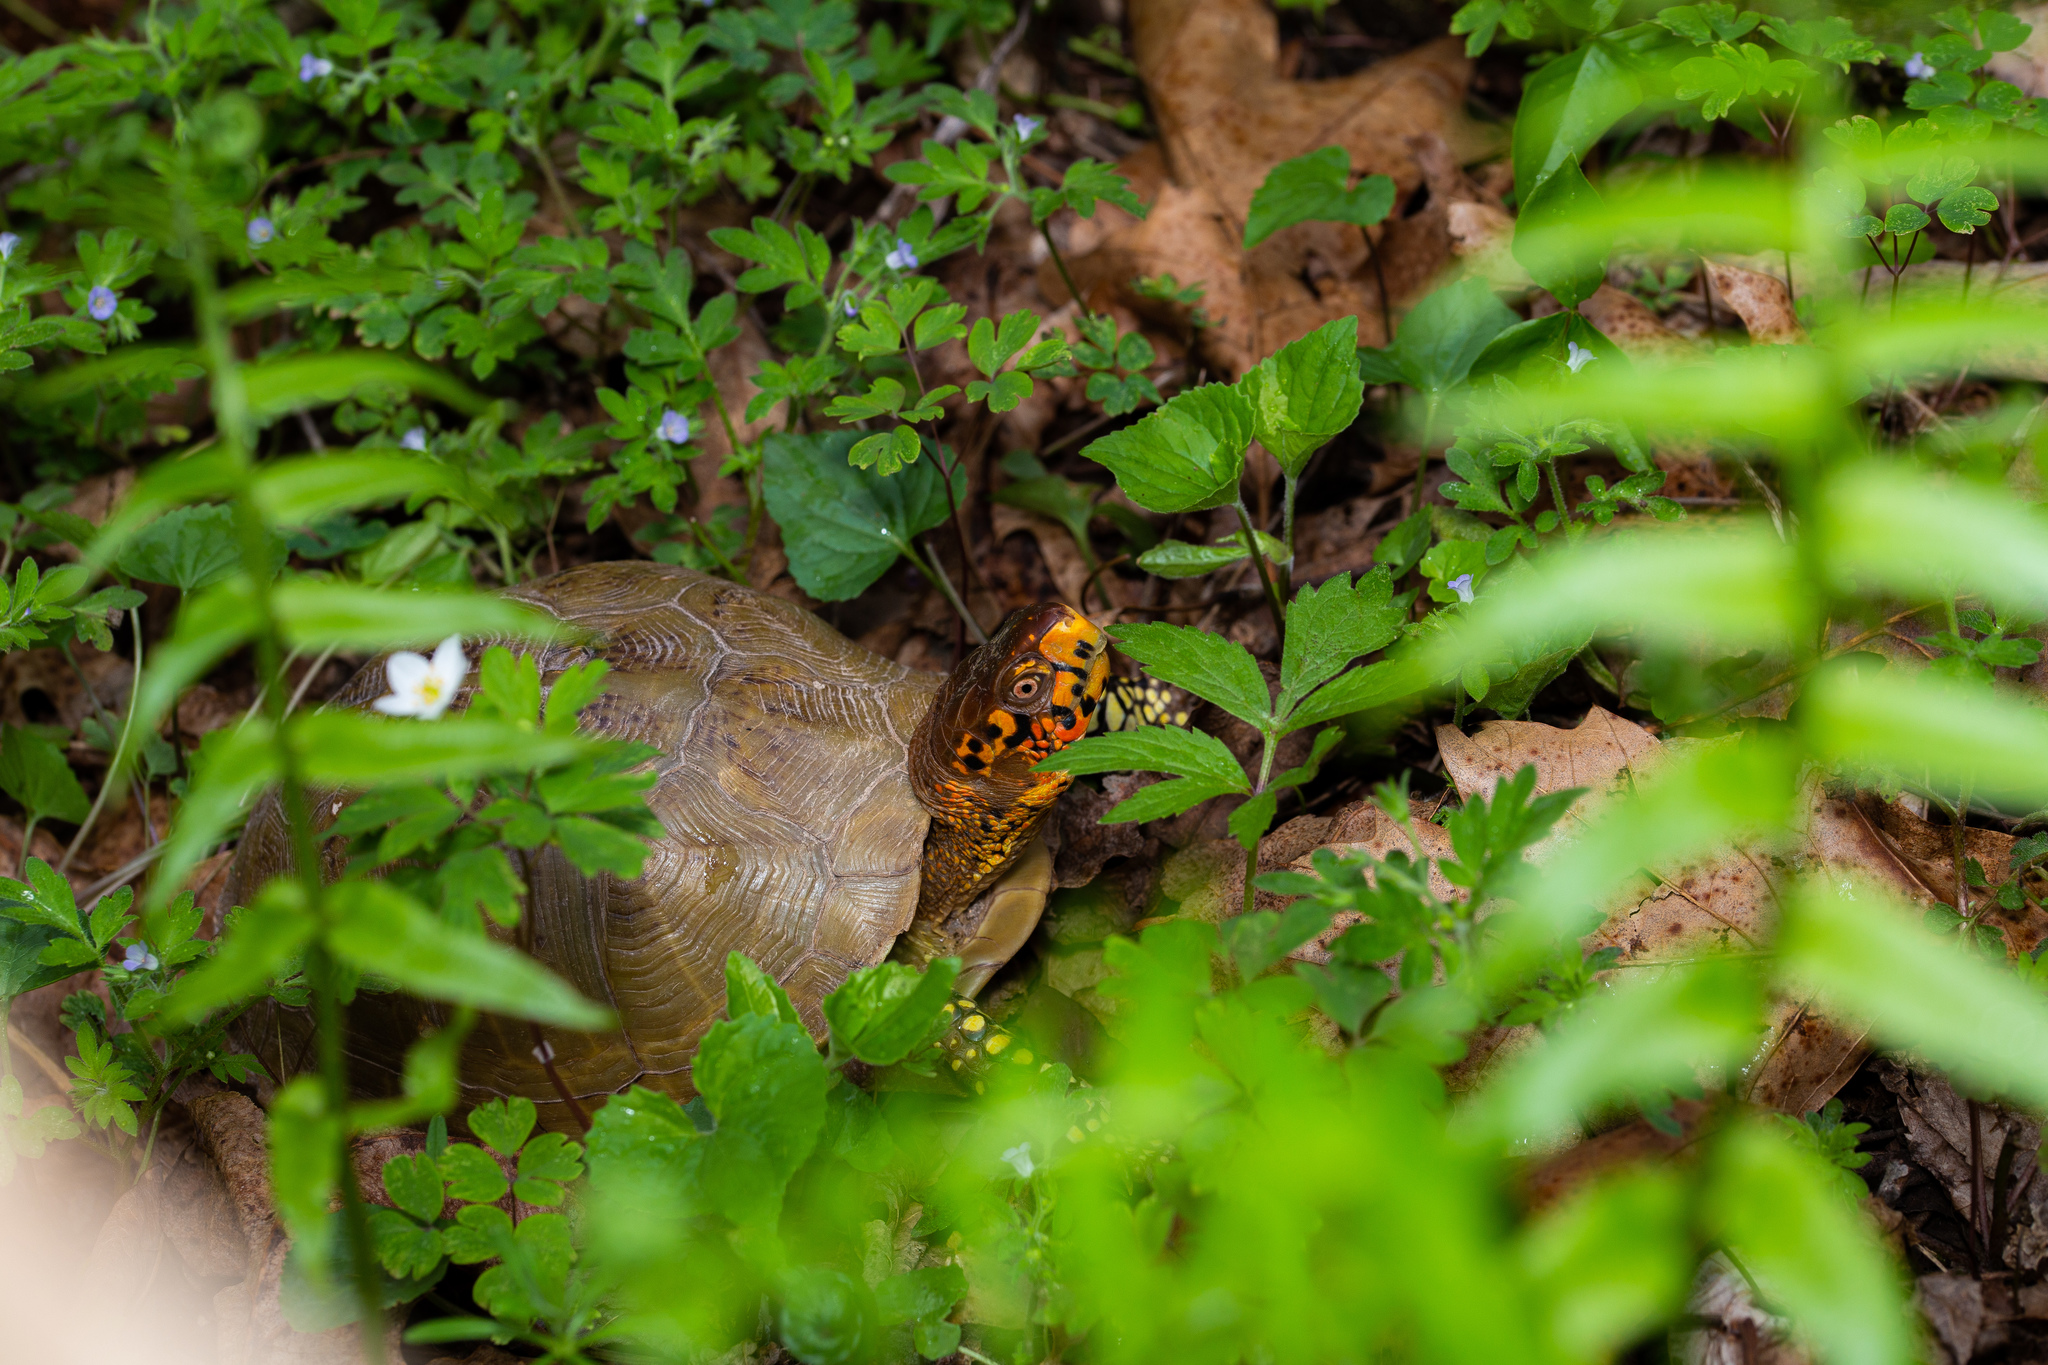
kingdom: Animalia
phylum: Chordata
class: Testudines
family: Emydidae
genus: Terrapene
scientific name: Terrapene carolina
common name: Common box turtle
